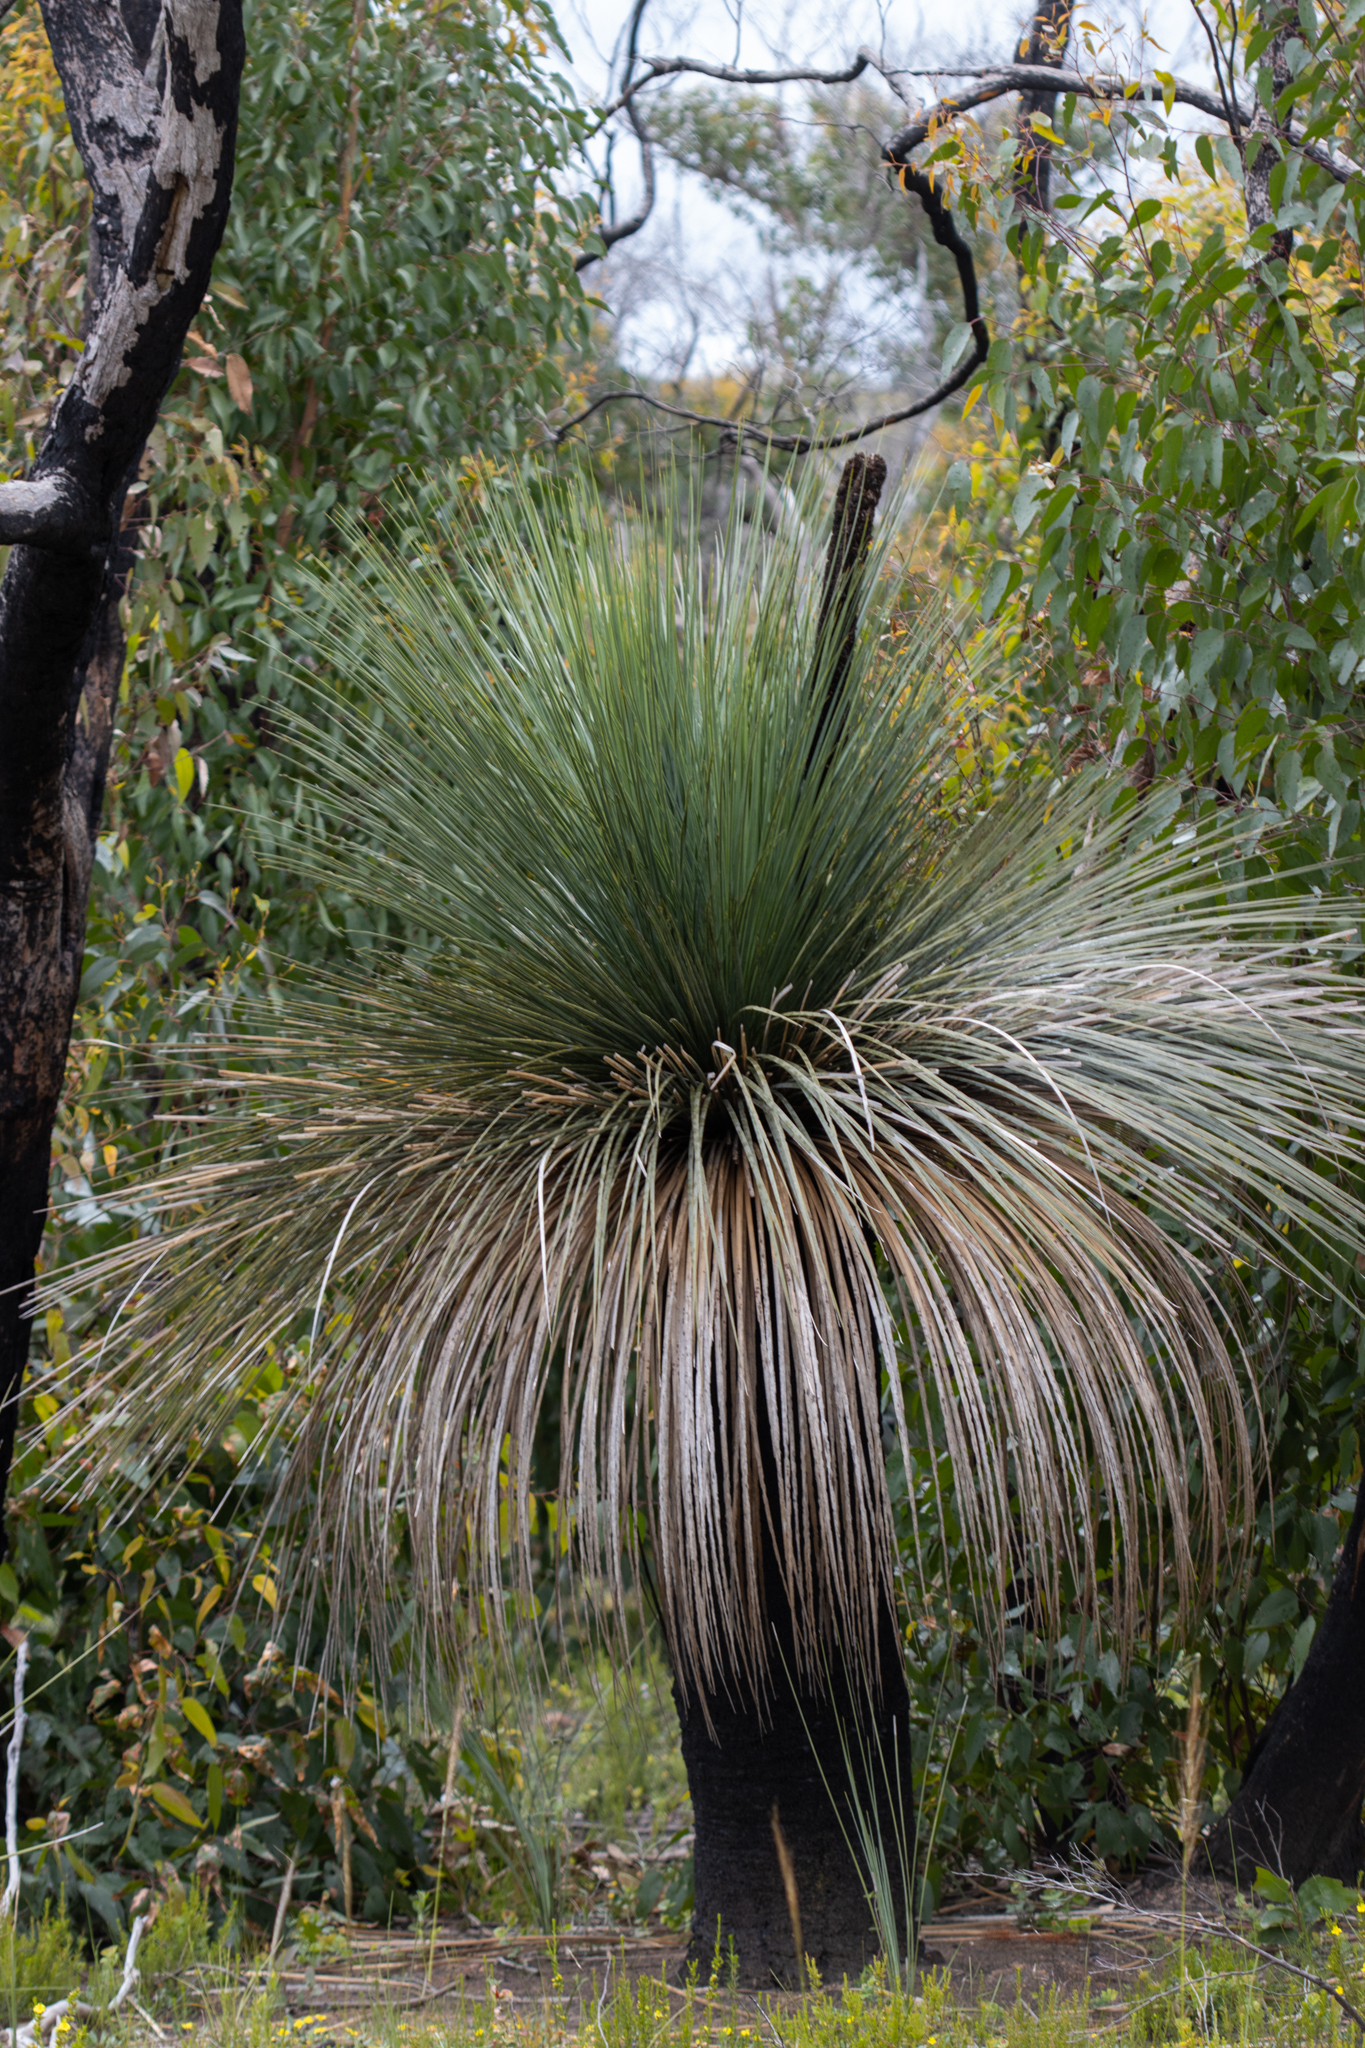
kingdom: Plantae
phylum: Tracheophyta
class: Liliopsida
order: Asparagales
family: Asphodelaceae
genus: Xanthorrhoea
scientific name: Xanthorrhoea semiplana
